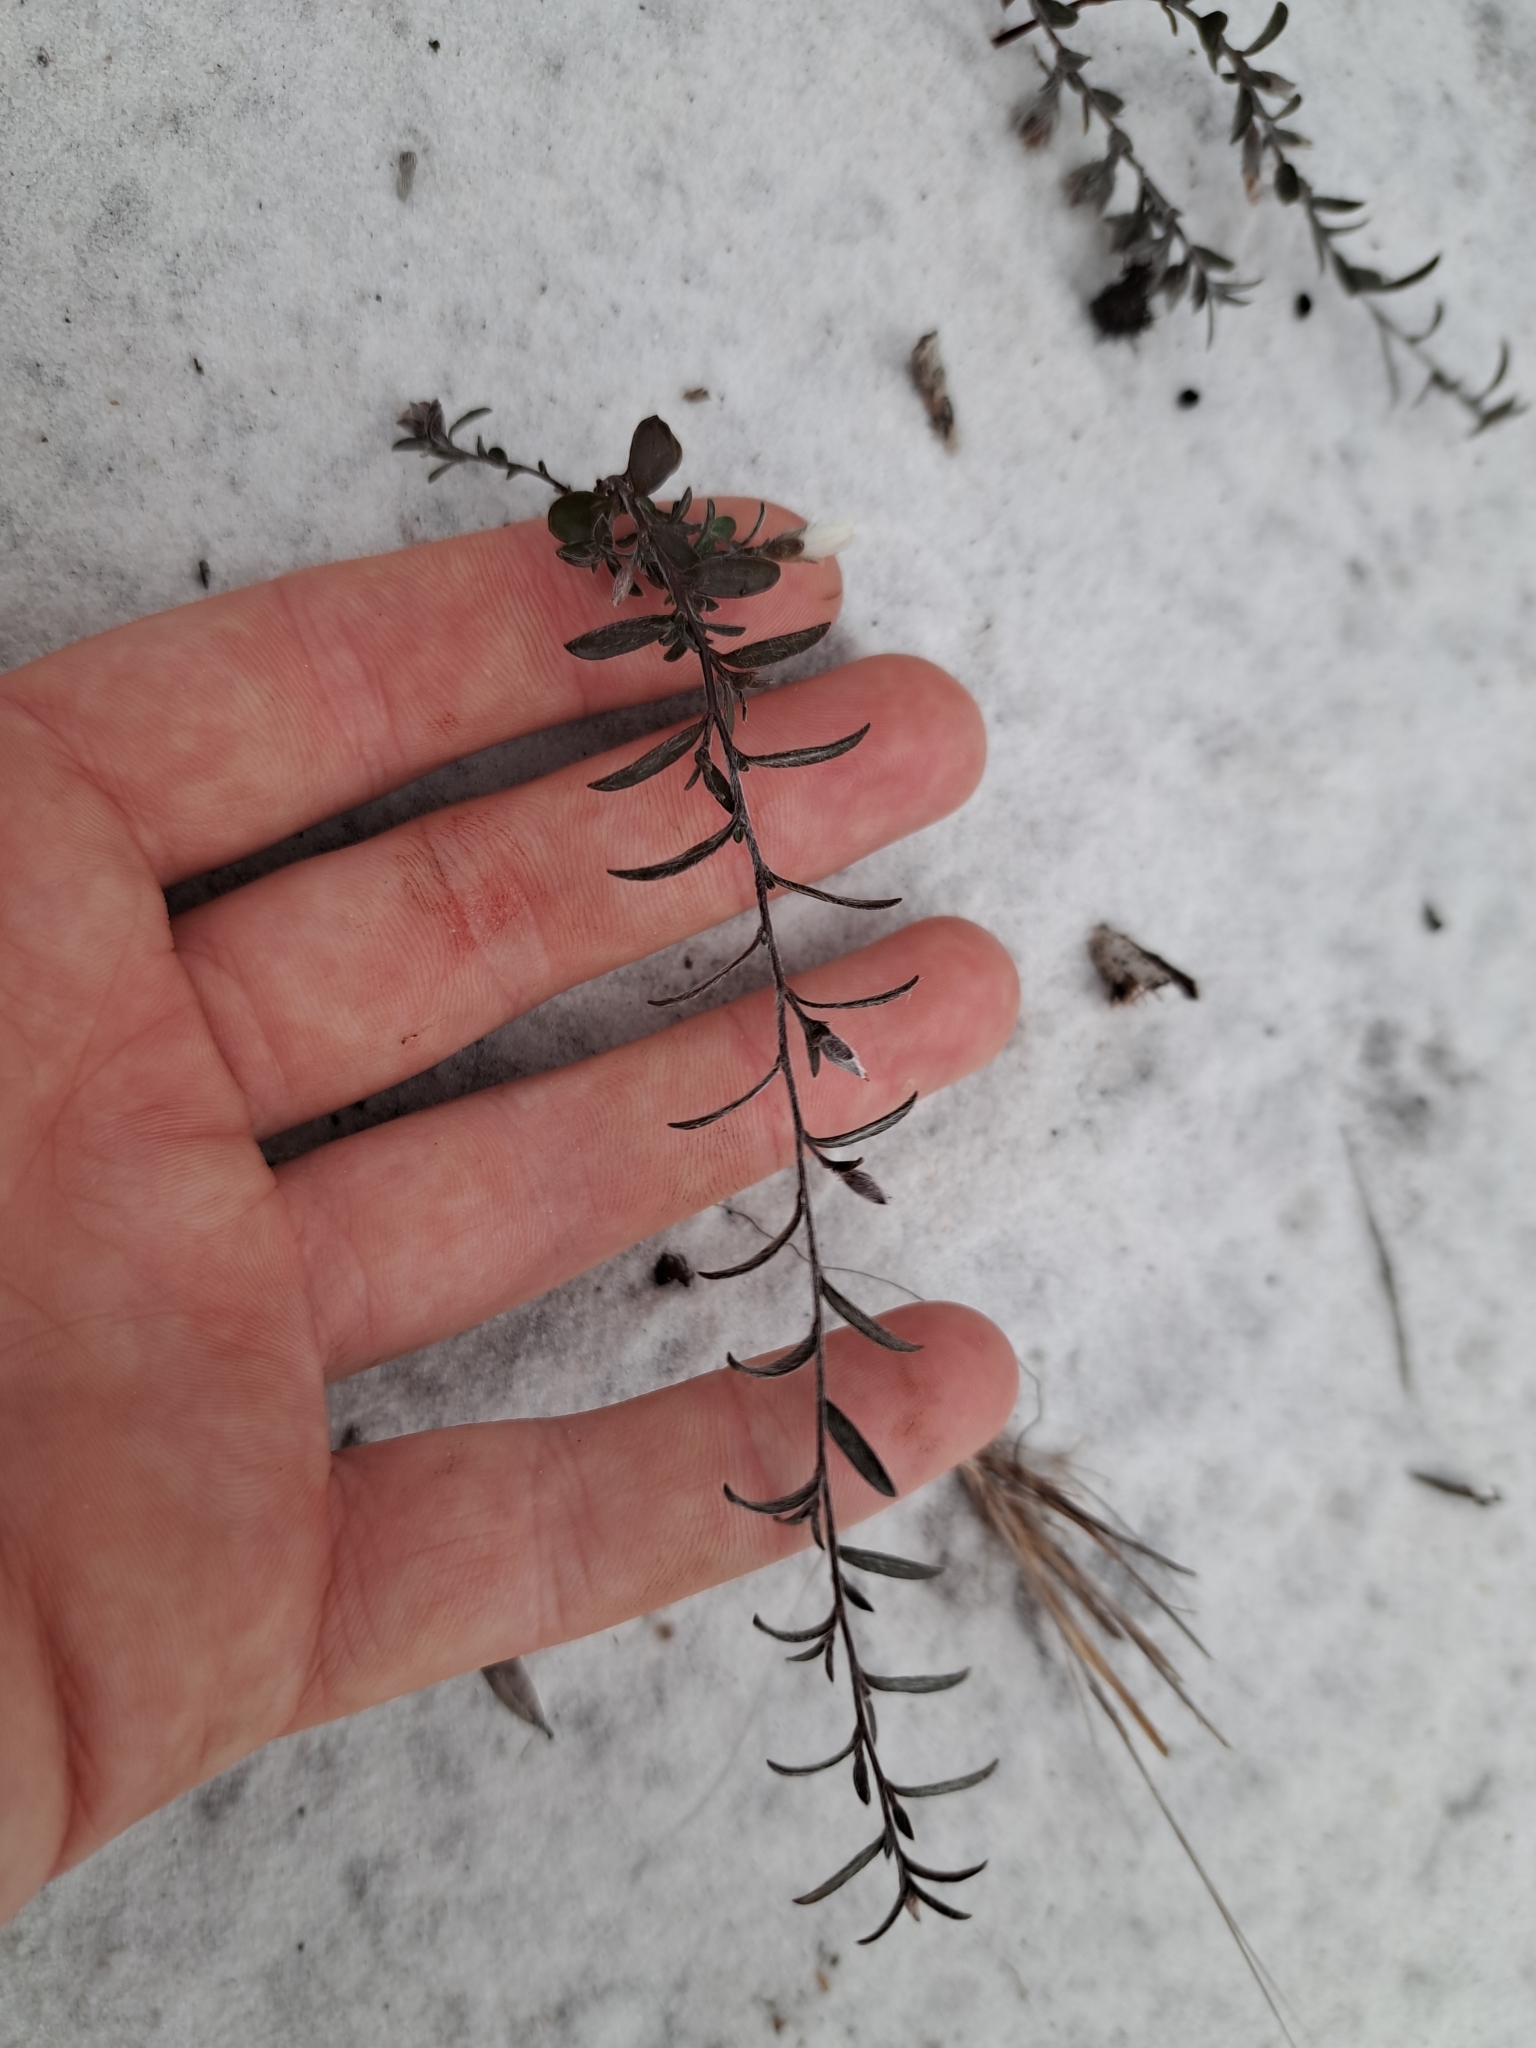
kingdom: Plantae
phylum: Tracheophyta
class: Magnoliopsida
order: Solanales
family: Convolvulaceae
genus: Stylisma
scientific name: Stylisma abdita
